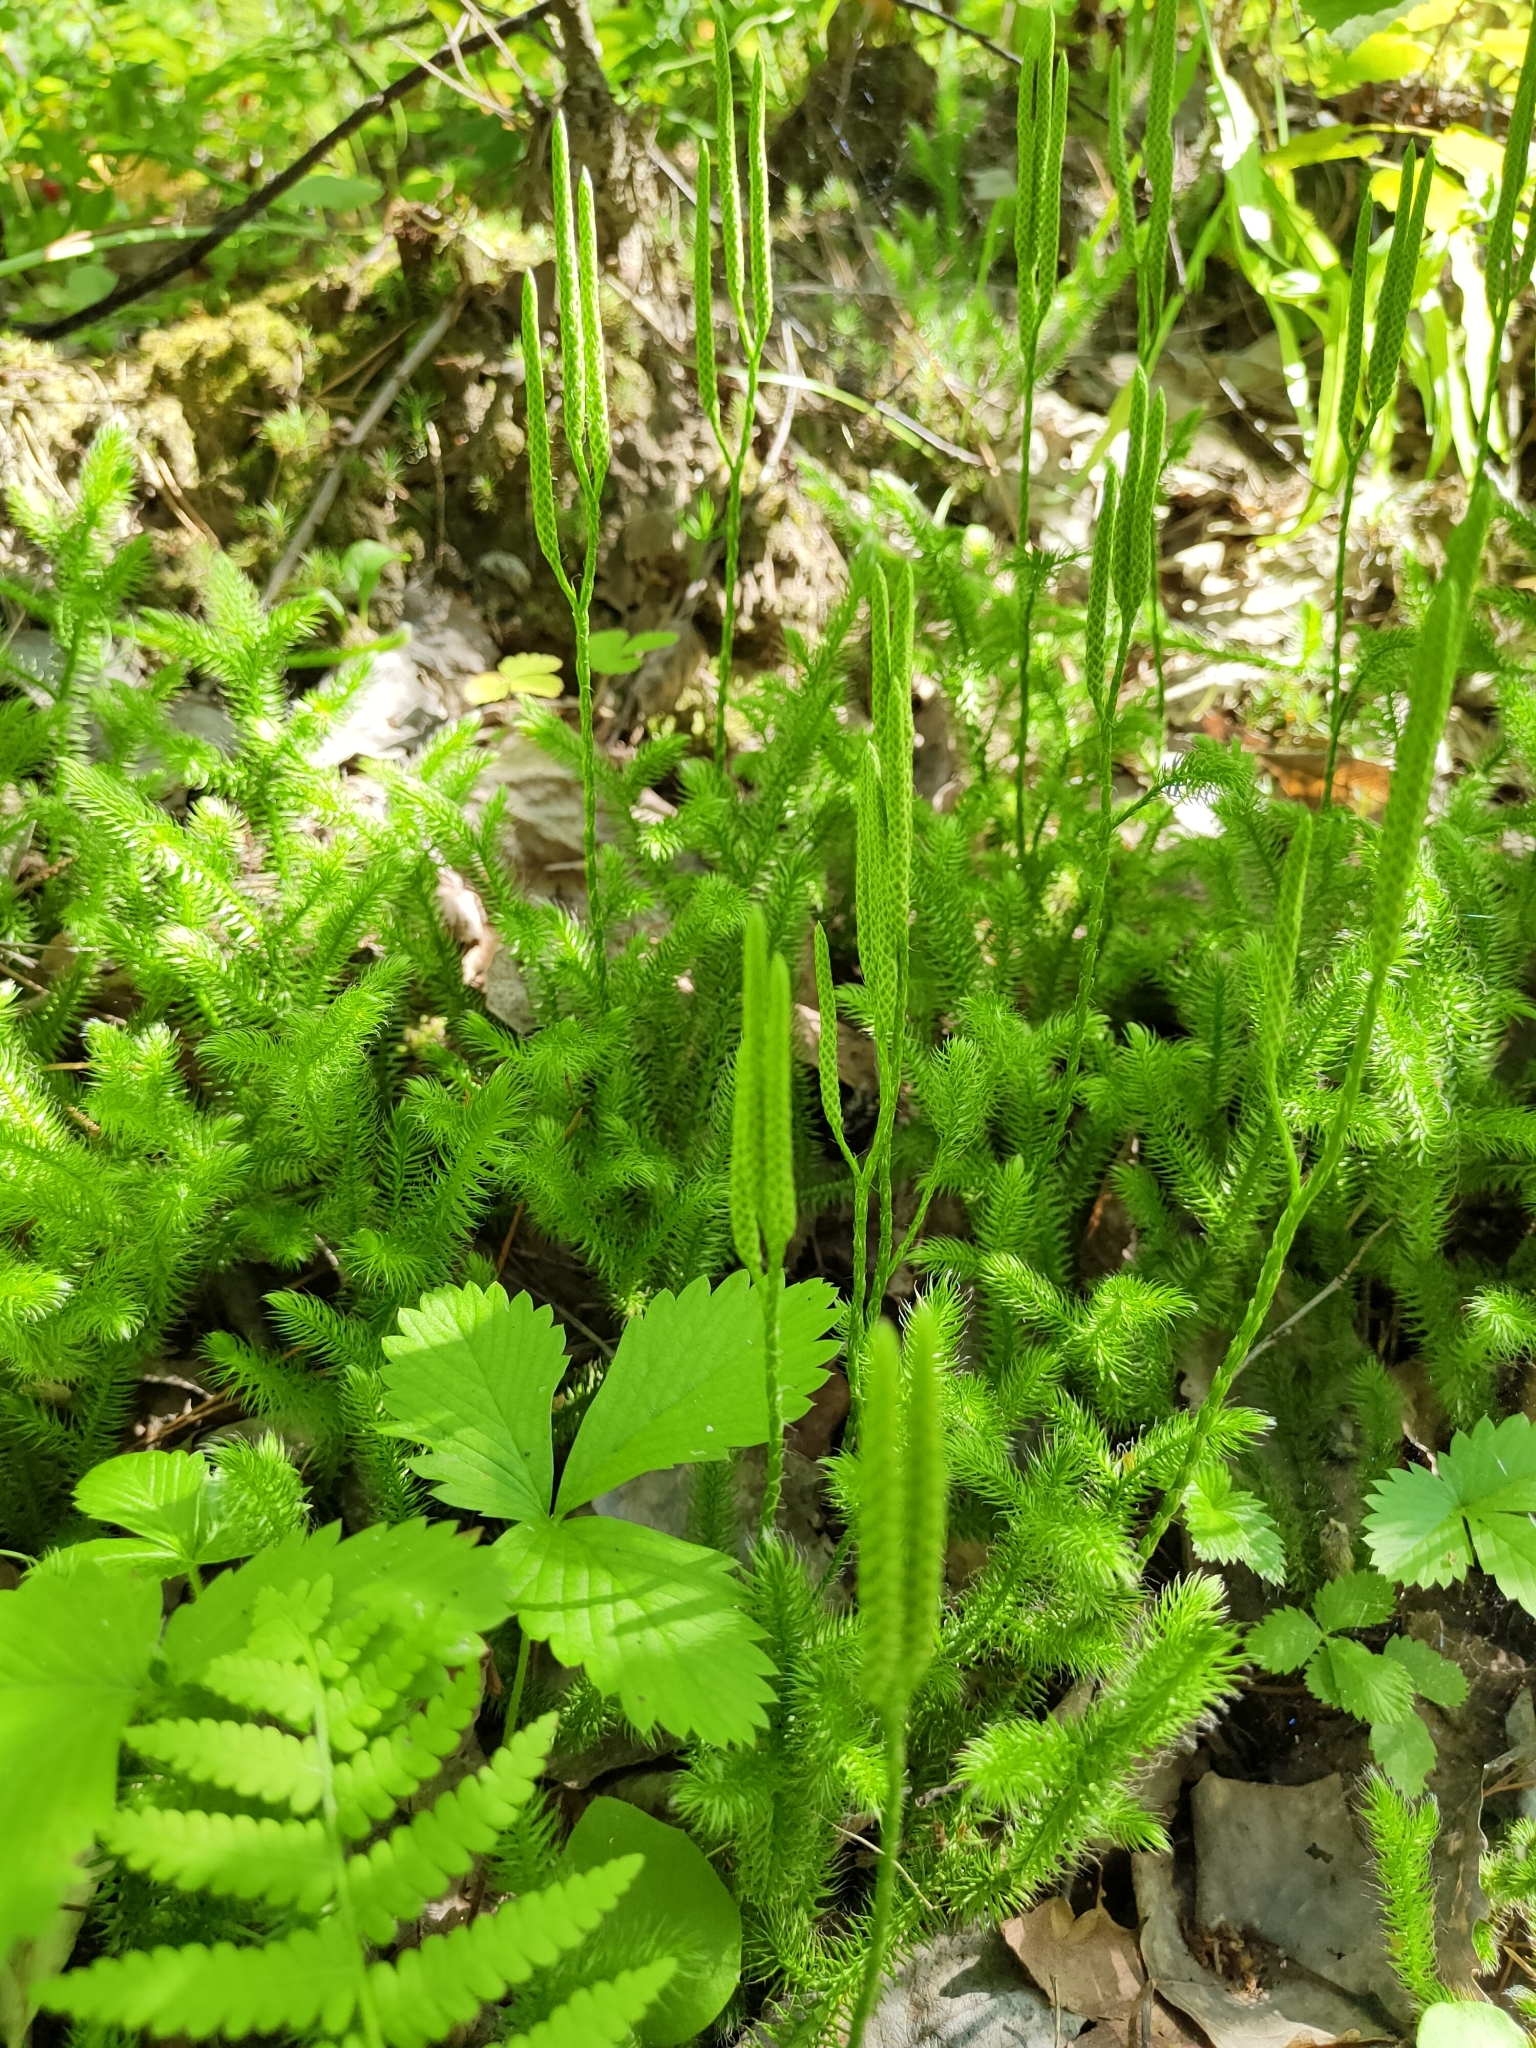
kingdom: Plantae
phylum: Tracheophyta
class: Lycopodiopsida
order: Lycopodiales
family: Lycopodiaceae
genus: Lycopodium
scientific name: Lycopodium clavatum
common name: Stag's-horn clubmoss
